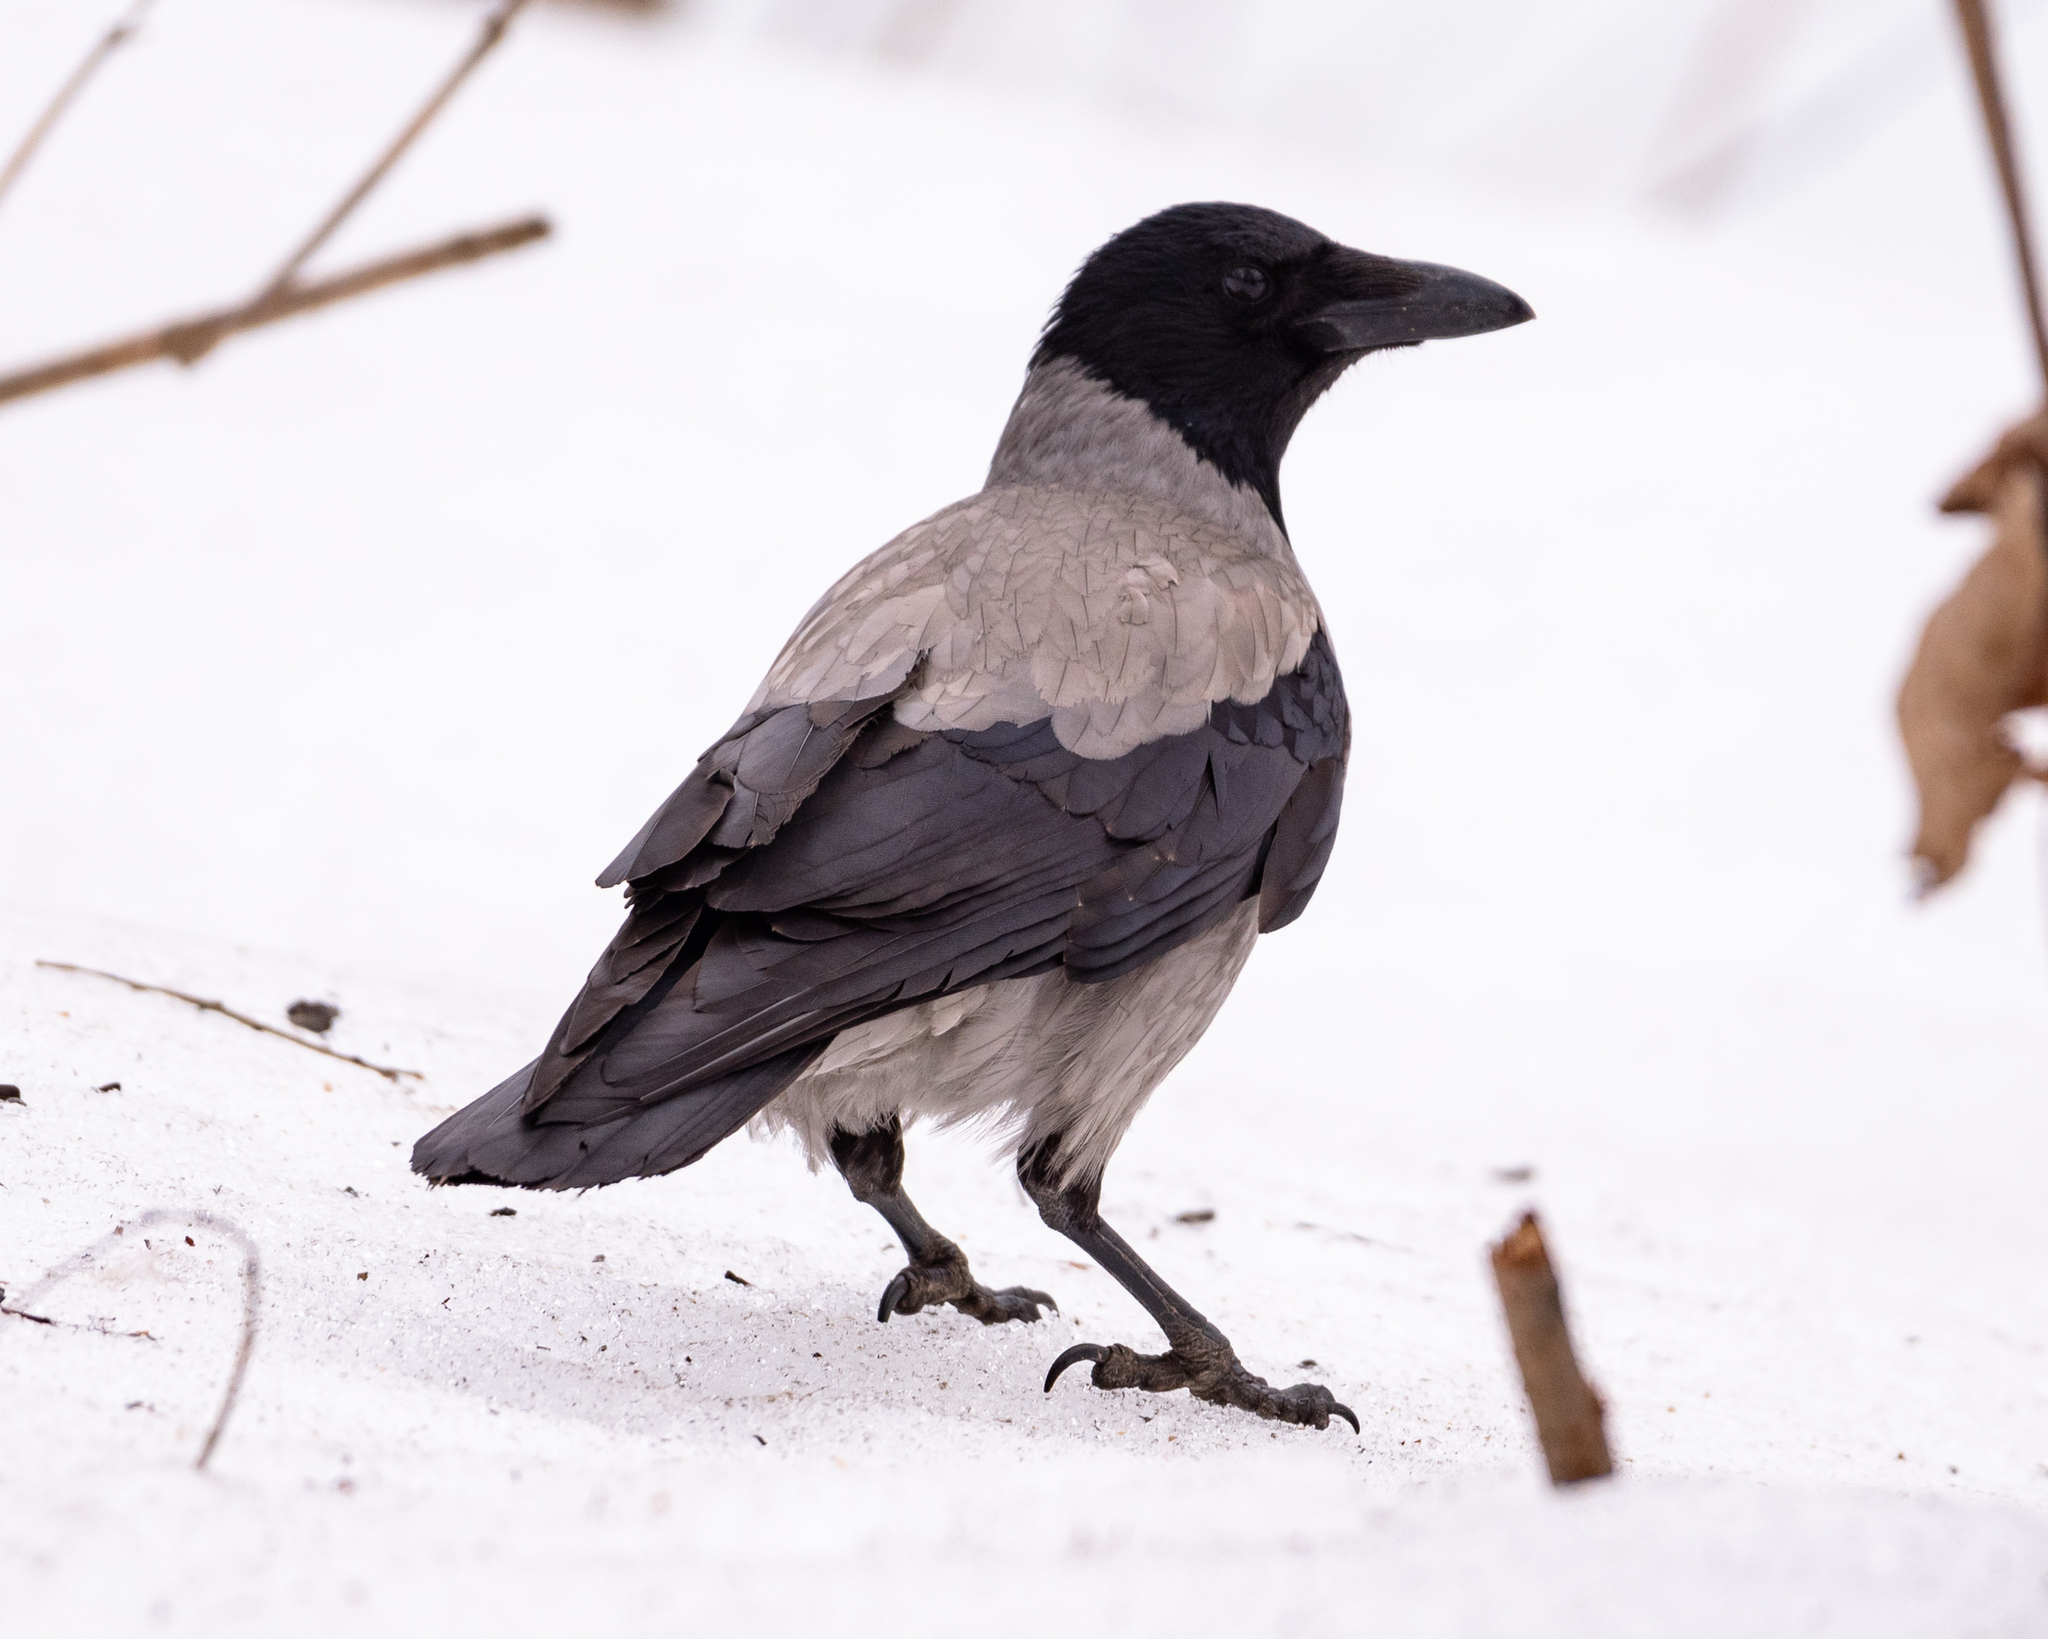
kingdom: Animalia
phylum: Chordata
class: Aves
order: Passeriformes
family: Corvidae
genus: Corvus
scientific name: Corvus cornix
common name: Hooded crow
